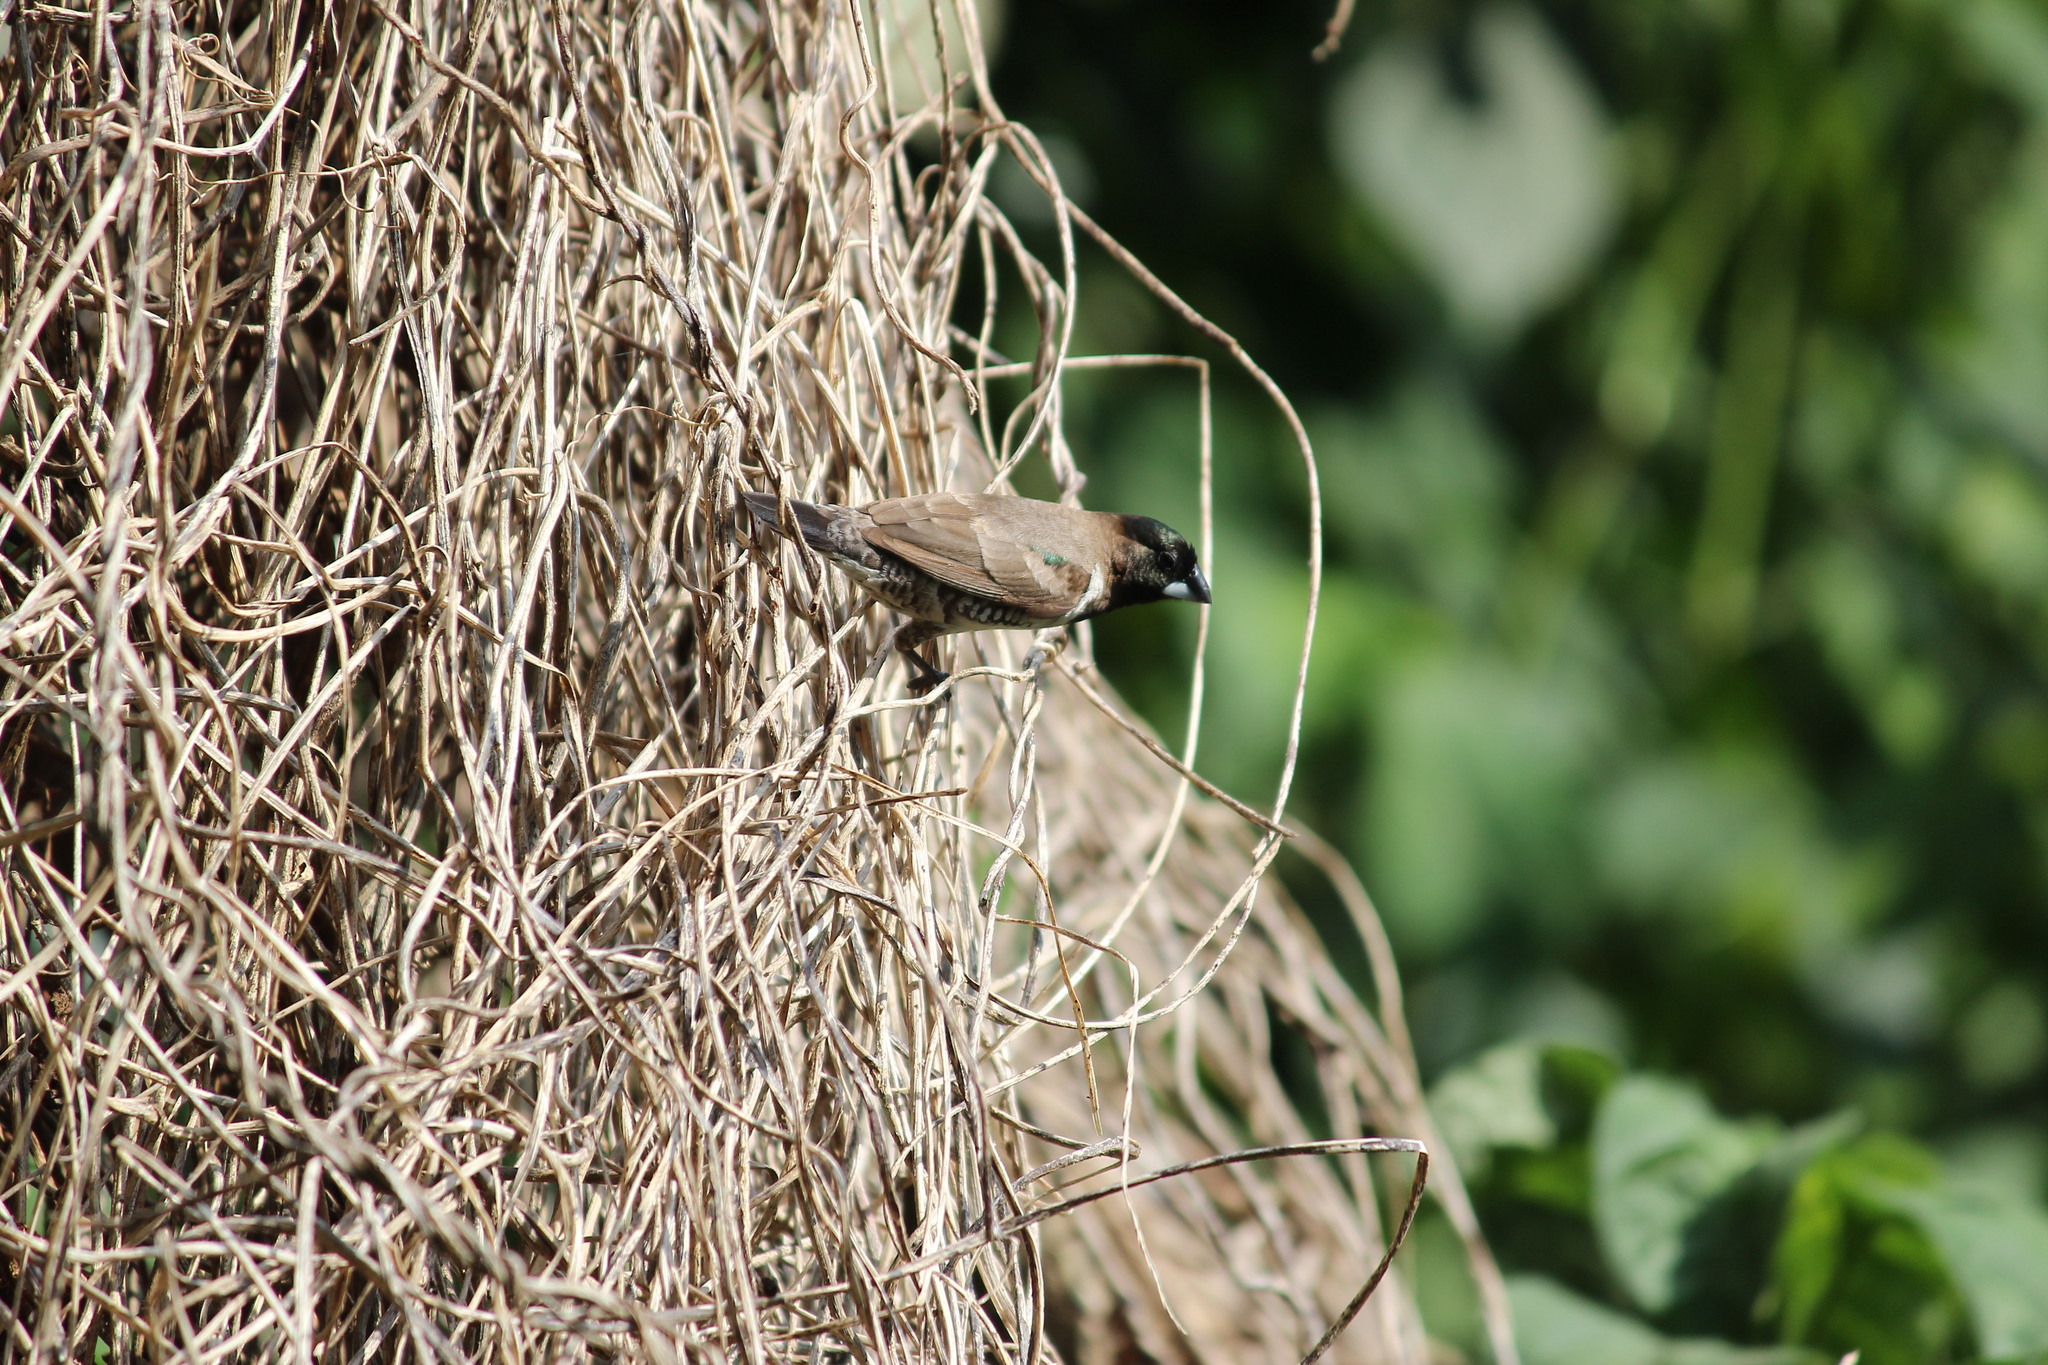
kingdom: Animalia
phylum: Chordata
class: Aves
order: Passeriformes
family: Estrildidae
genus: Lonchura
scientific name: Lonchura cucullata
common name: Bronze mannikin
